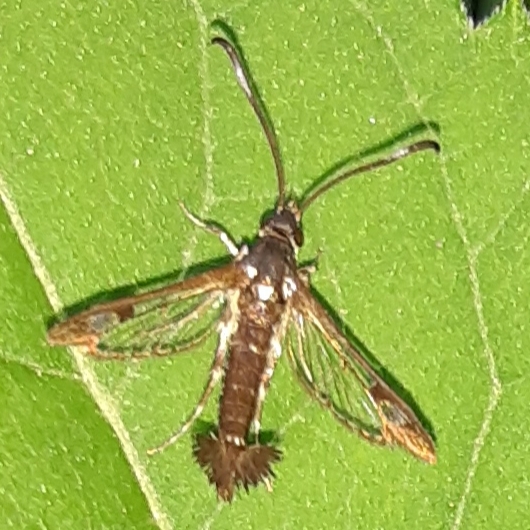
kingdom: Animalia
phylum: Arthropoda
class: Insecta
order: Lepidoptera
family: Sesiidae
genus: Carmenta
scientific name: Carmenta ithacae
